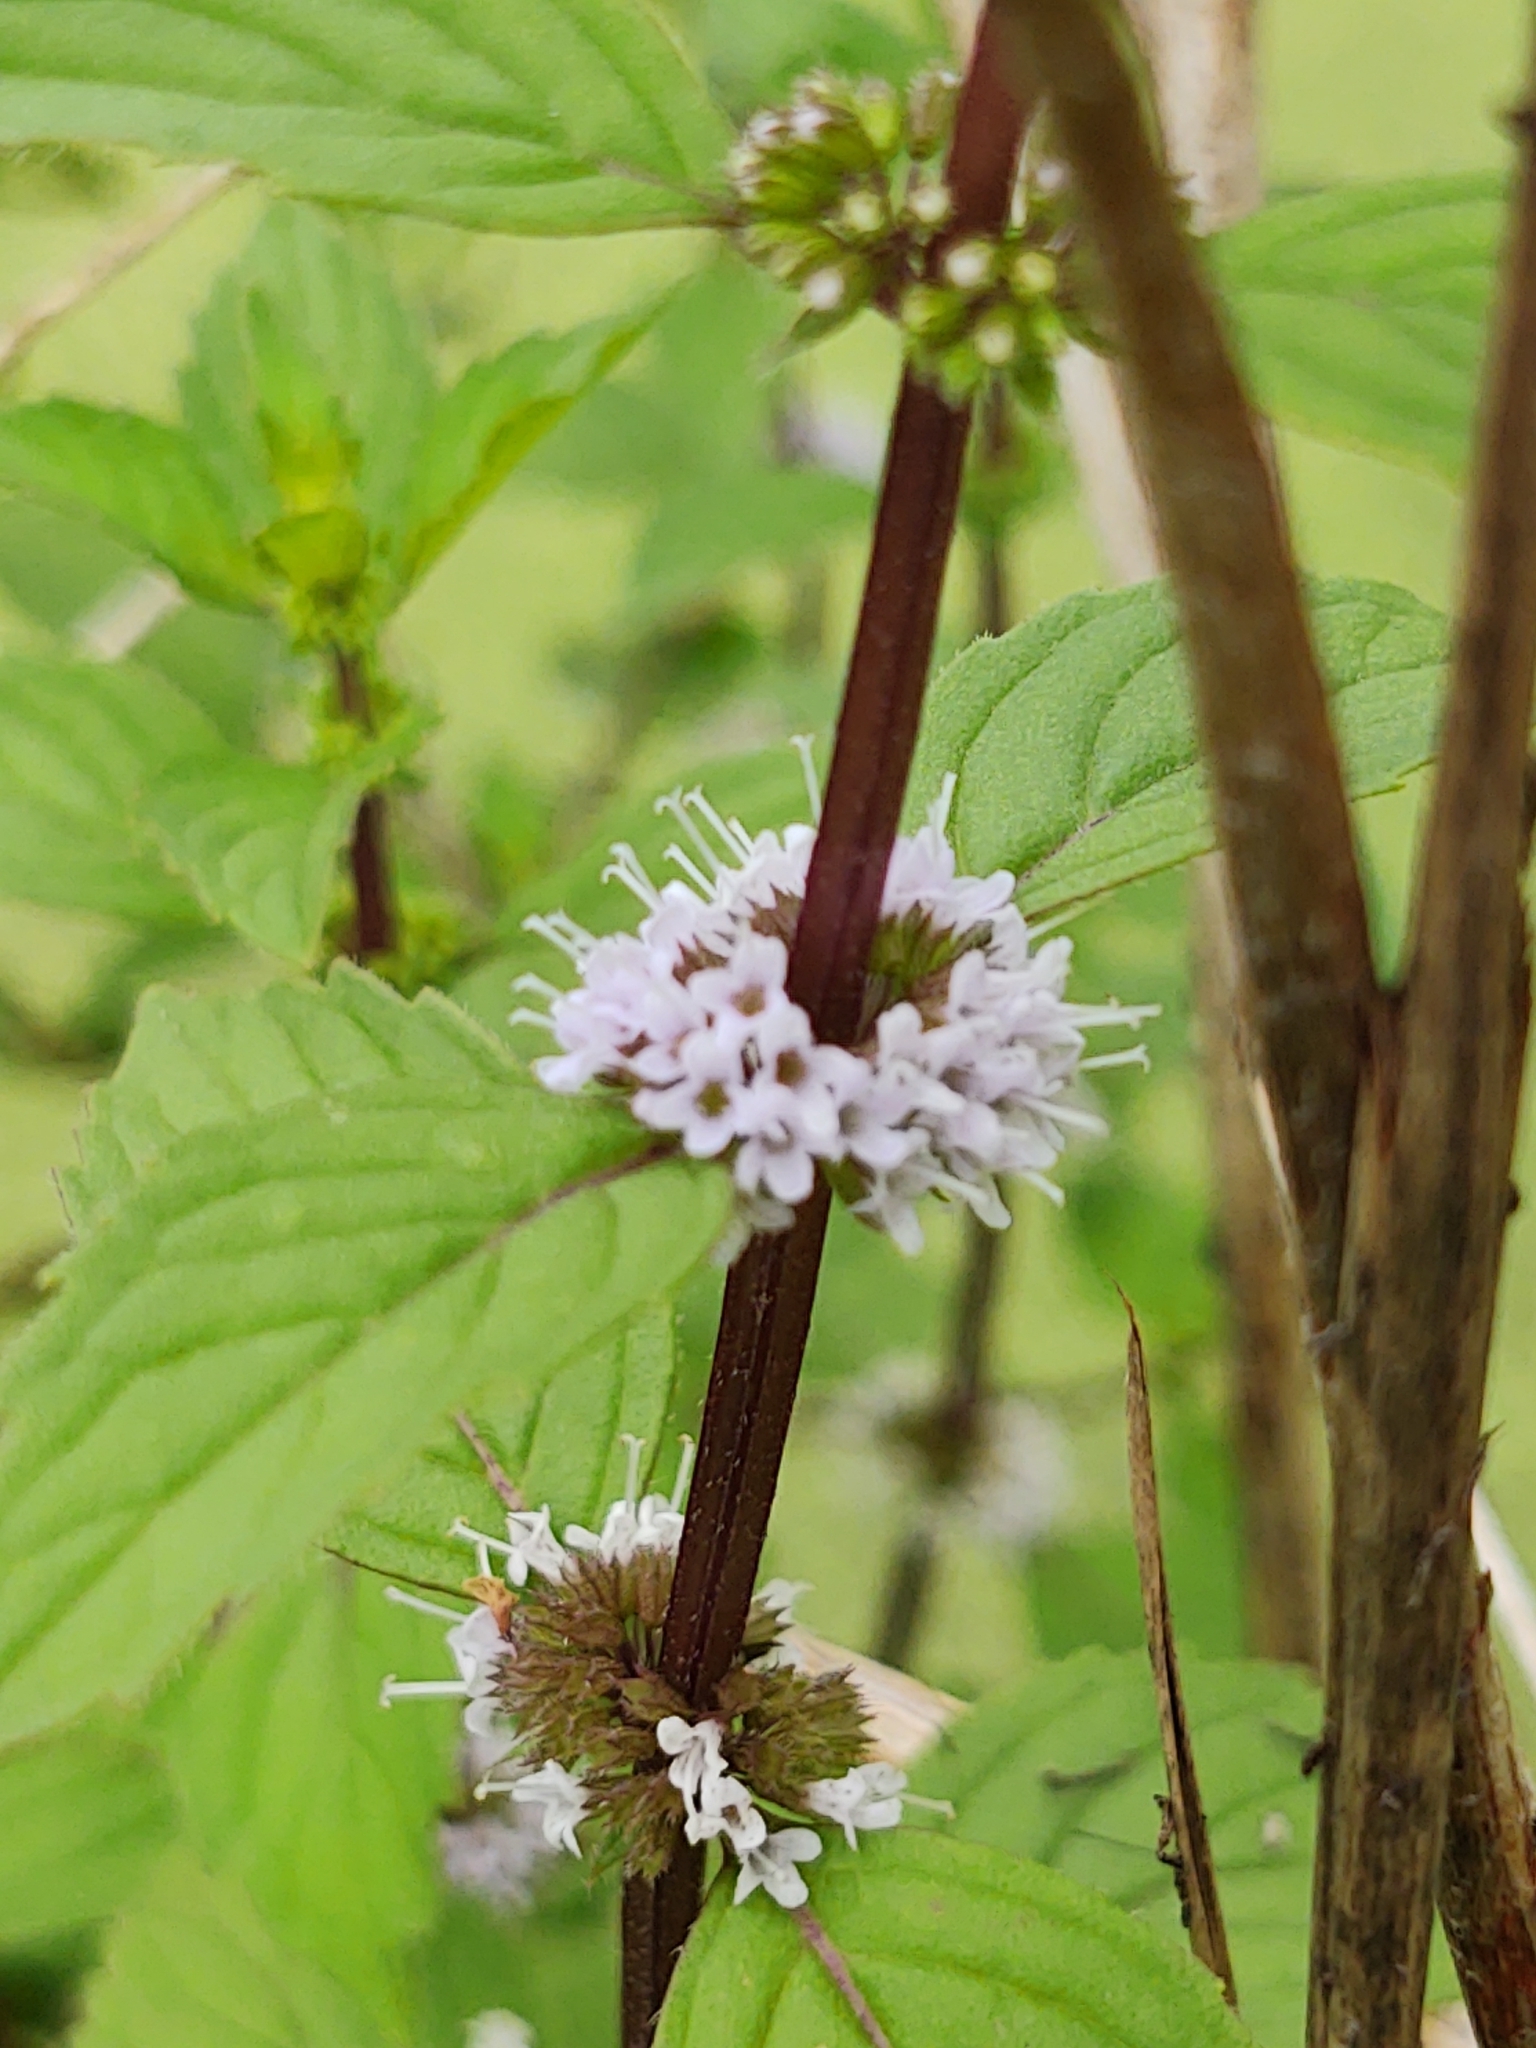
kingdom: Plantae
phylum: Tracheophyta
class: Magnoliopsida
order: Lamiales
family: Lamiaceae
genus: Mentha
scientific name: Mentha arvensis
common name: Corn mint
